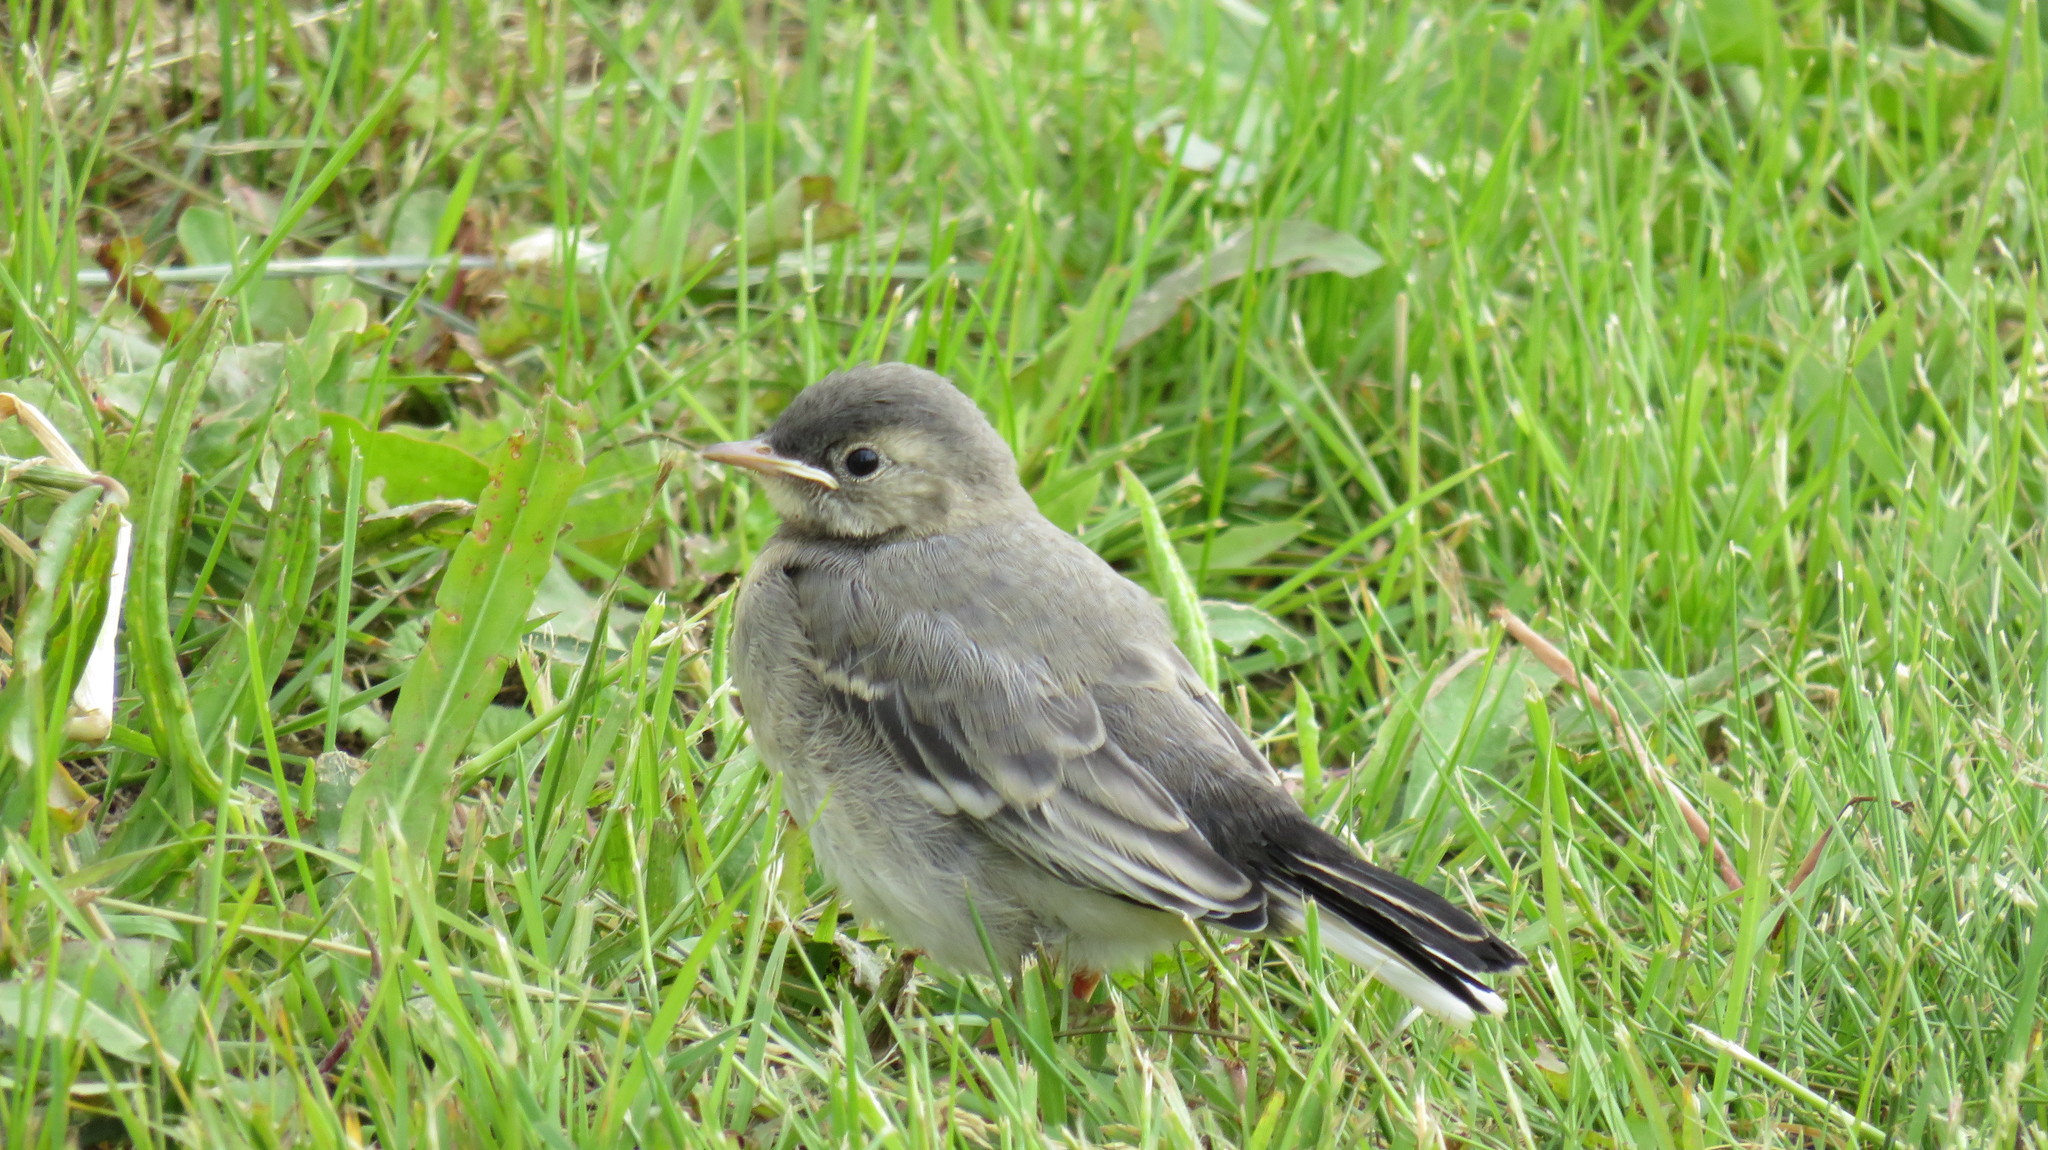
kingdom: Animalia
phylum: Chordata
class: Aves
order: Passeriformes
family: Motacillidae
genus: Motacilla
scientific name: Motacilla alba
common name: White wagtail
